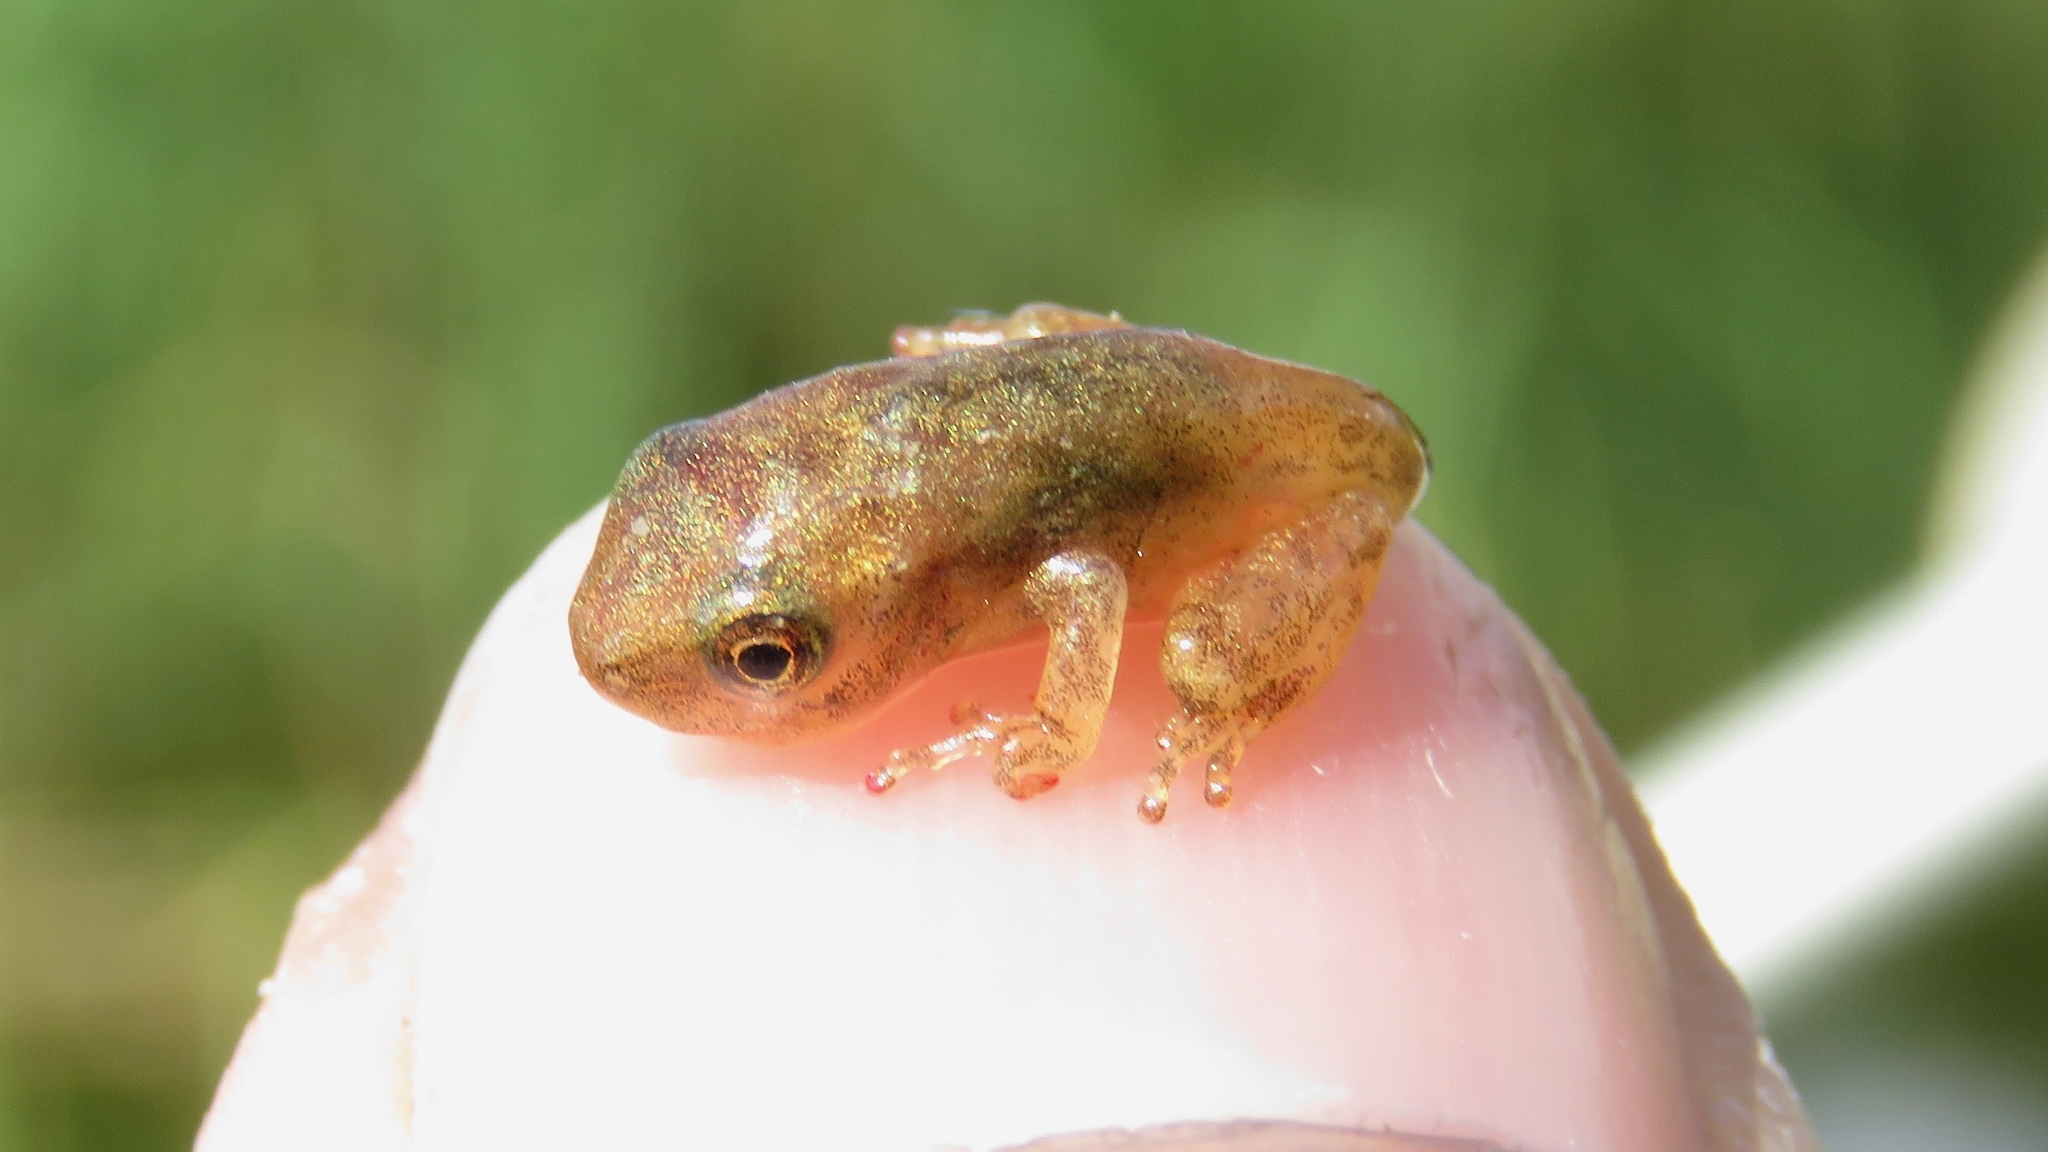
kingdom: Animalia
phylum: Chordata
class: Amphibia
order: Anura
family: Hylidae
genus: Pseudacris
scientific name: Pseudacris crucifer
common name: Spring peeper
